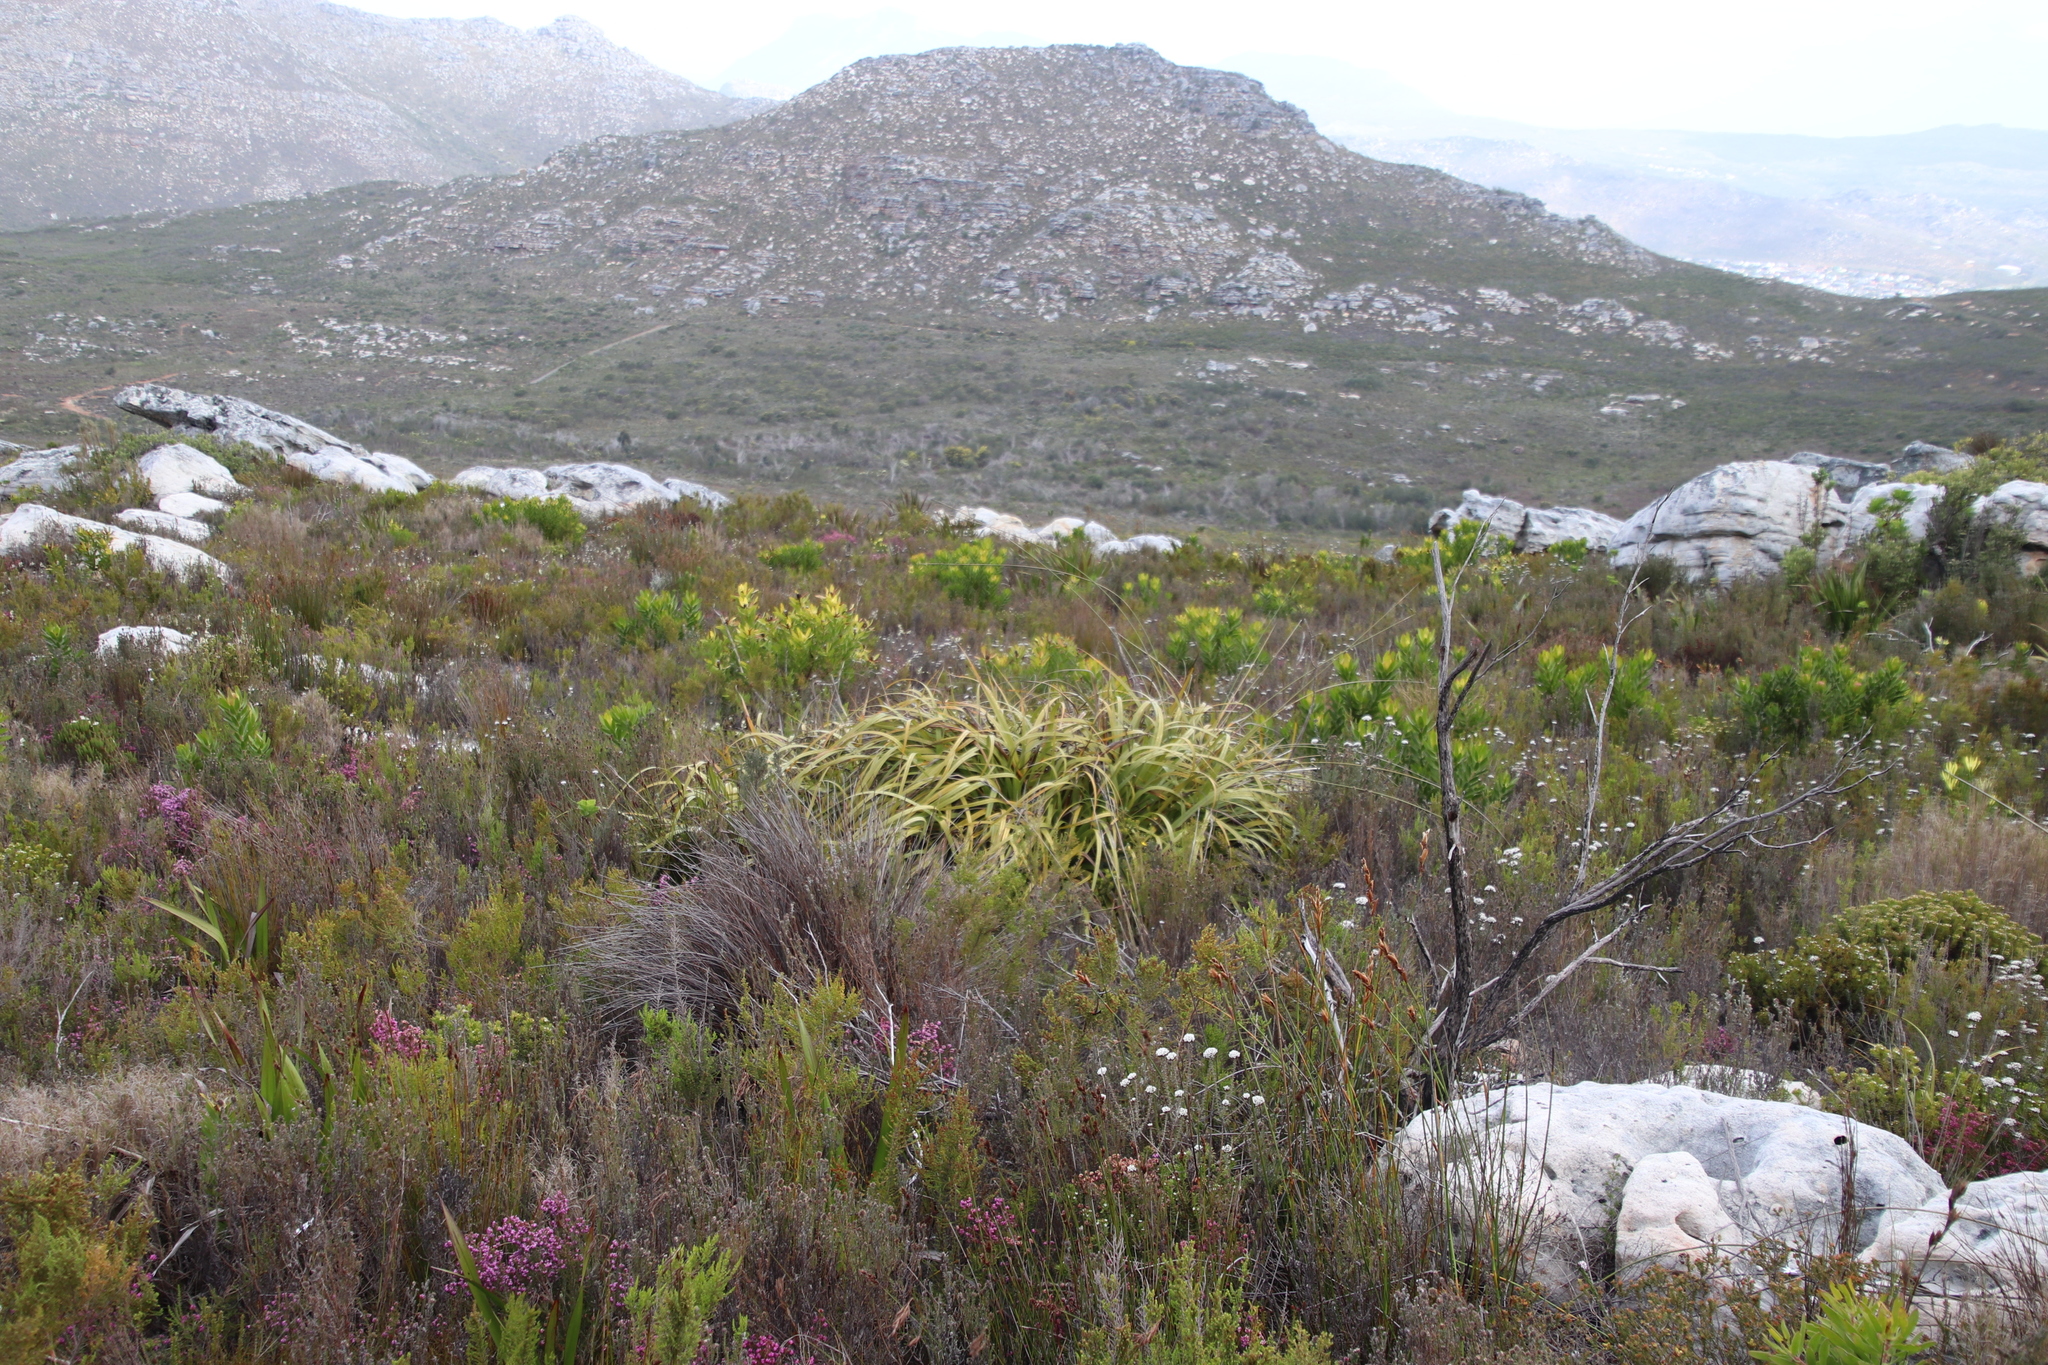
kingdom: Plantae
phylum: Tracheophyta
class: Liliopsida
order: Poales
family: Cyperaceae
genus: Tetraria
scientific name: Tetraria thermalis
